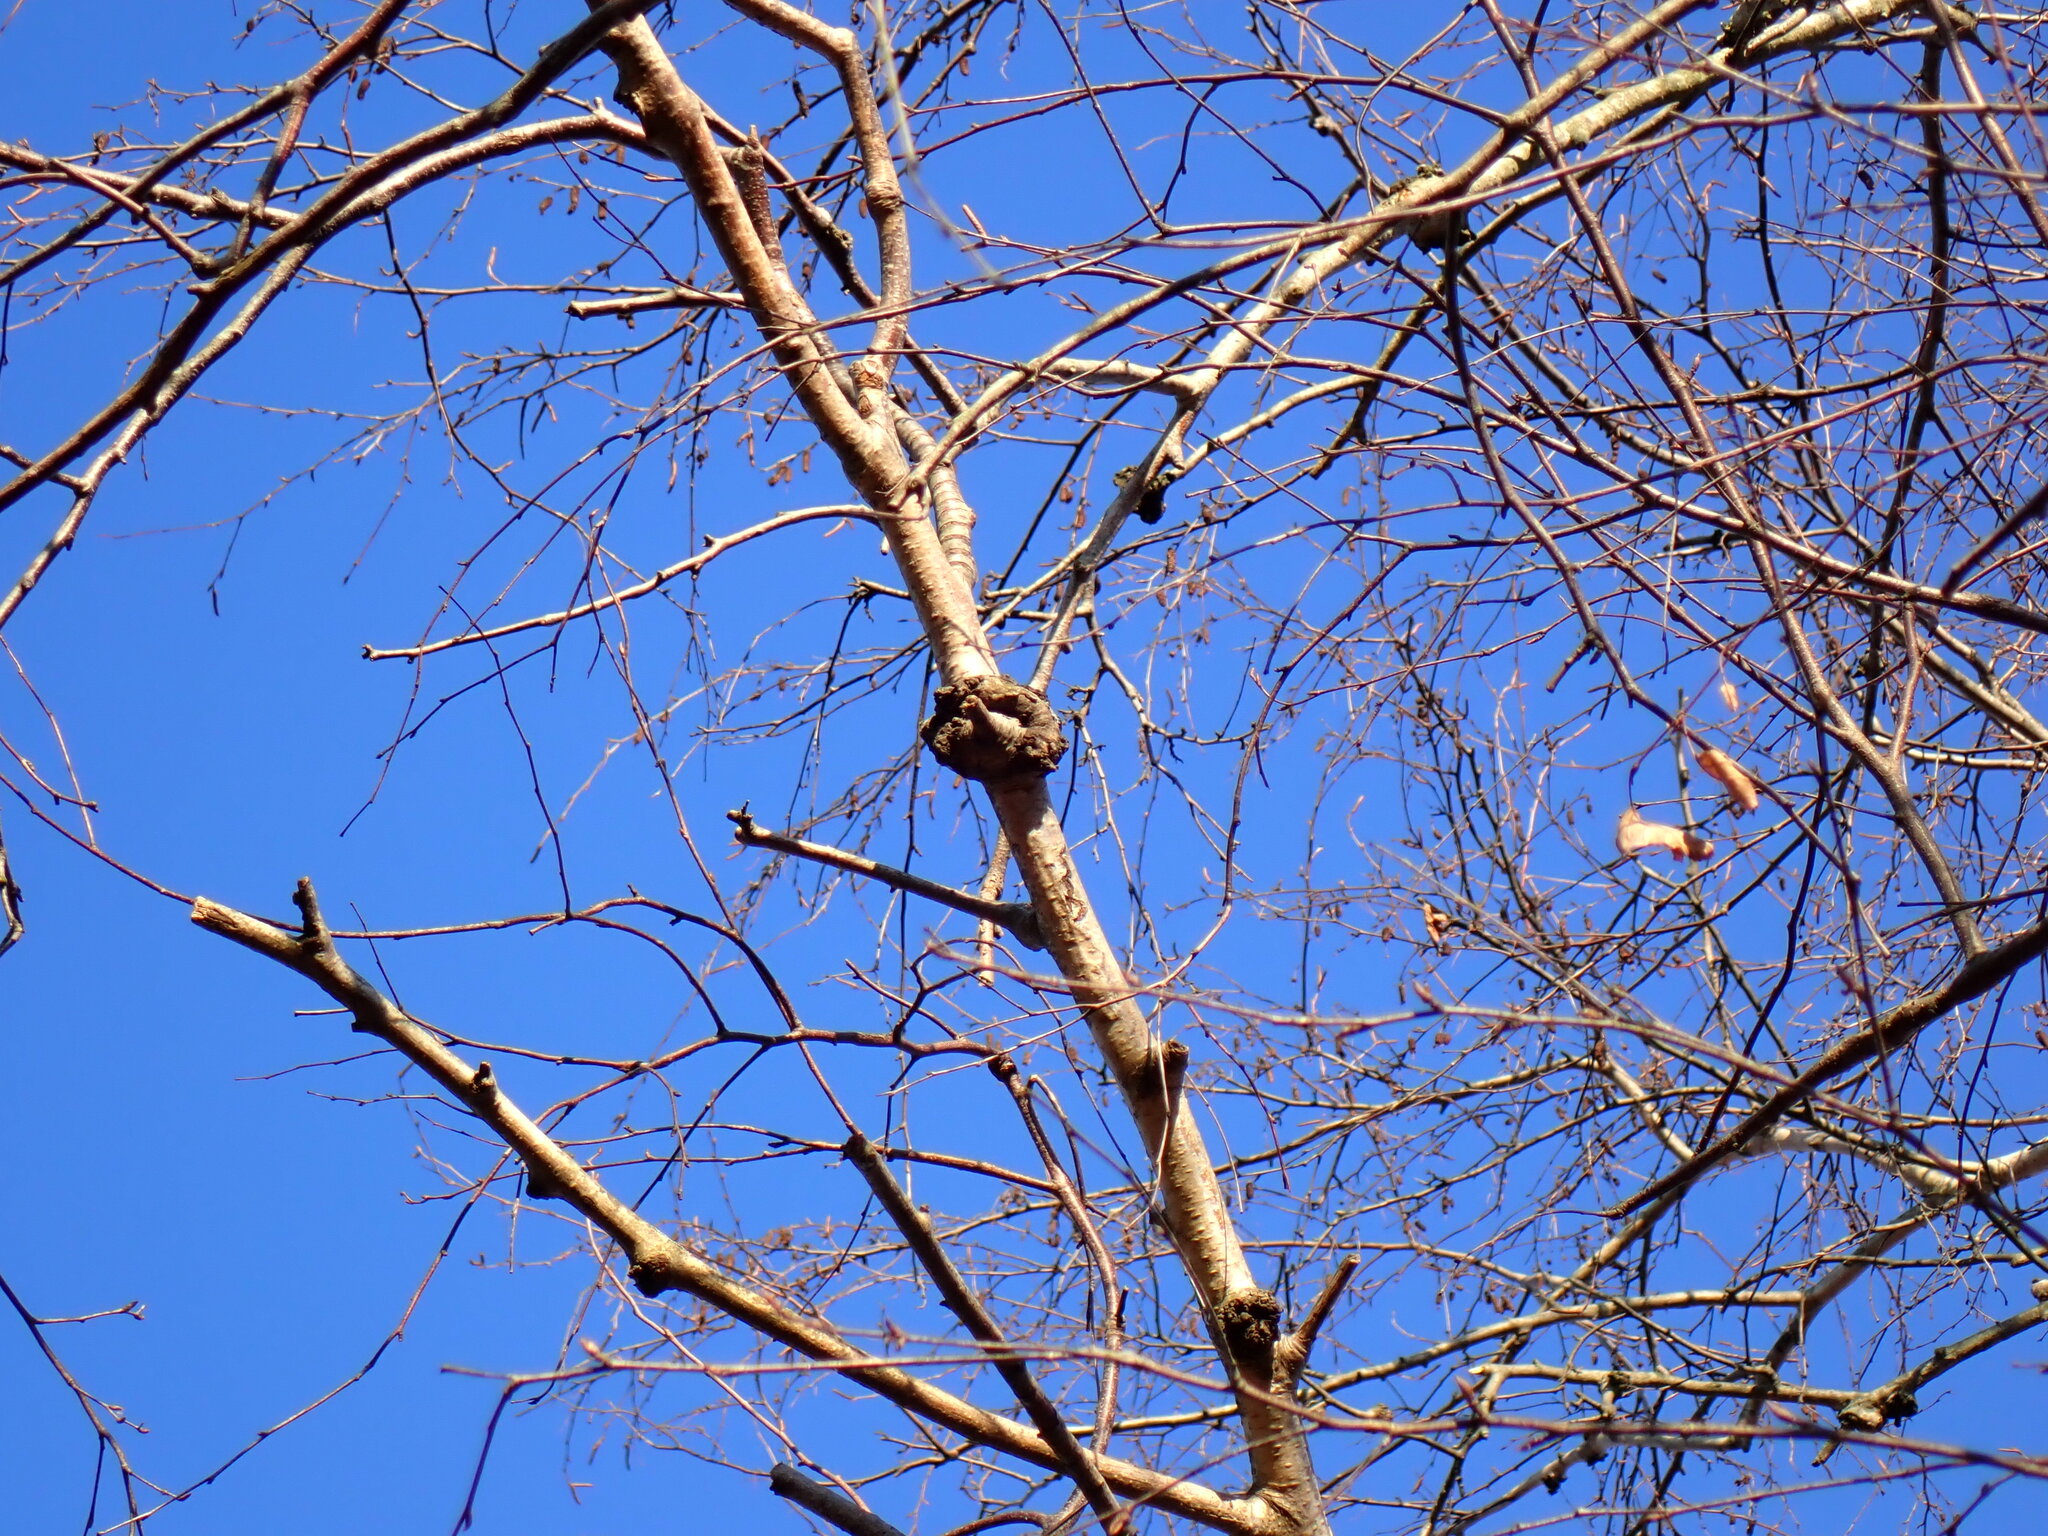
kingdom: Plantae
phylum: Tracheophyta
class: Magnoliopsida
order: Fagales
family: Betulaceae
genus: Betula
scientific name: Betula populifolia
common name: Fire birch
